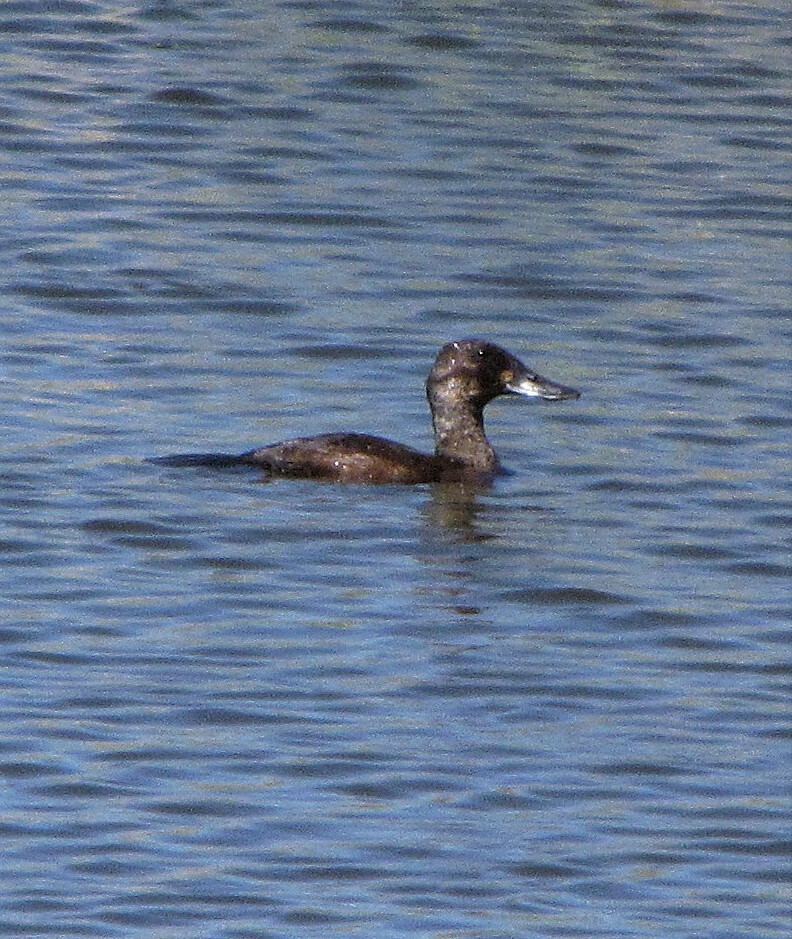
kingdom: Animalia
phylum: Chordata
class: Aves
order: Anseriformes
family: Anatidae
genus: Oxyura
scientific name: Oxyura ferruginea
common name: Andean duck
